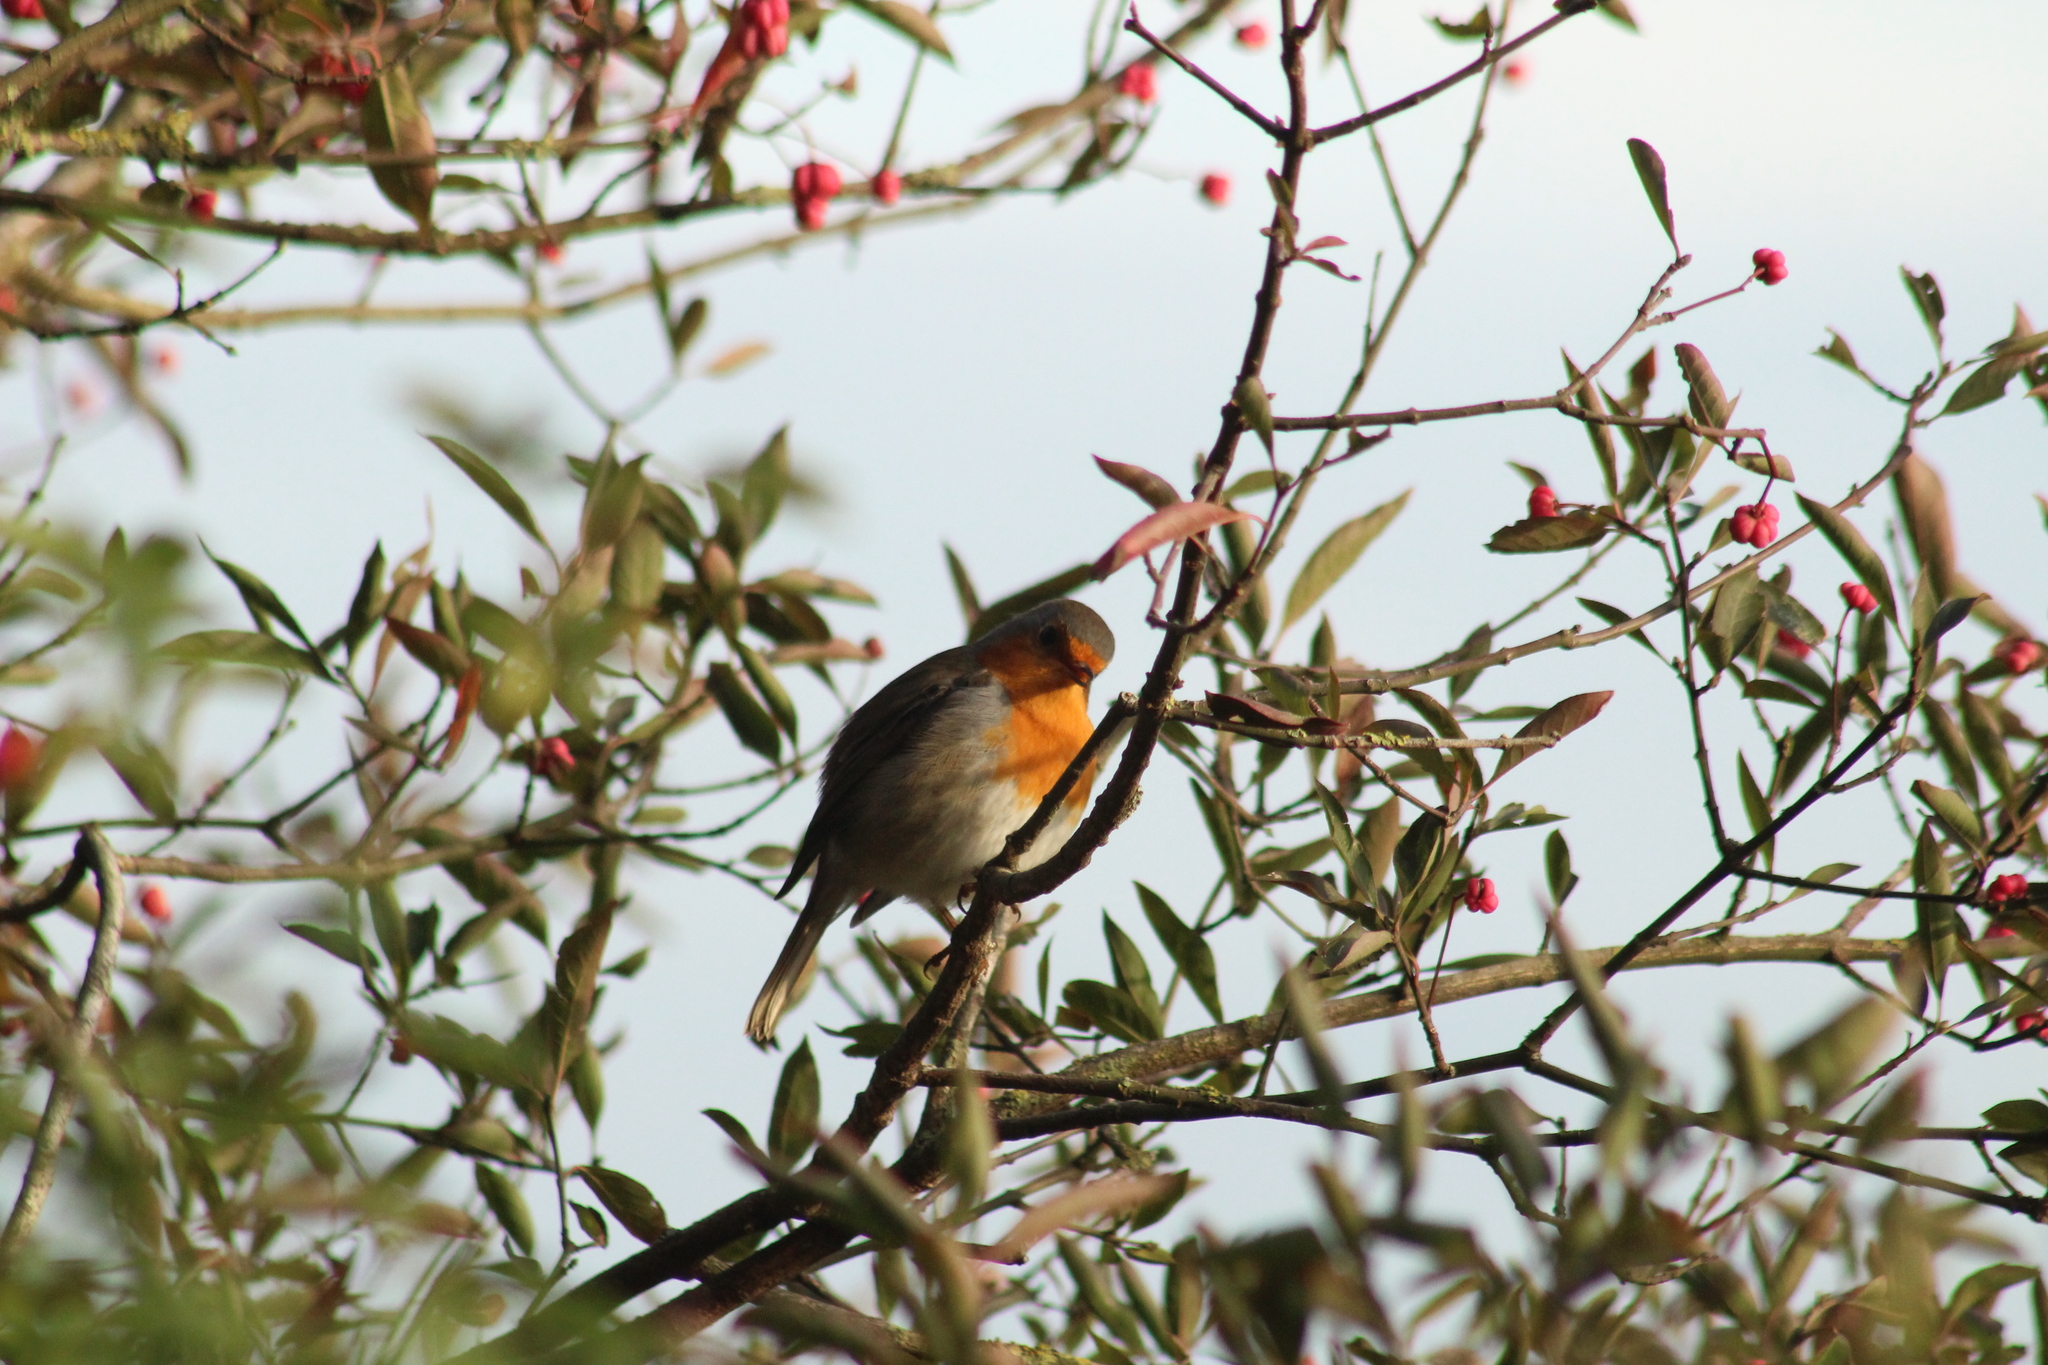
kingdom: Animalia
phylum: Chordata
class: Aves
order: Passeriformes
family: Muscicapidae
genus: Erithacus
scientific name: Erithacus rubecula
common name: European robin
